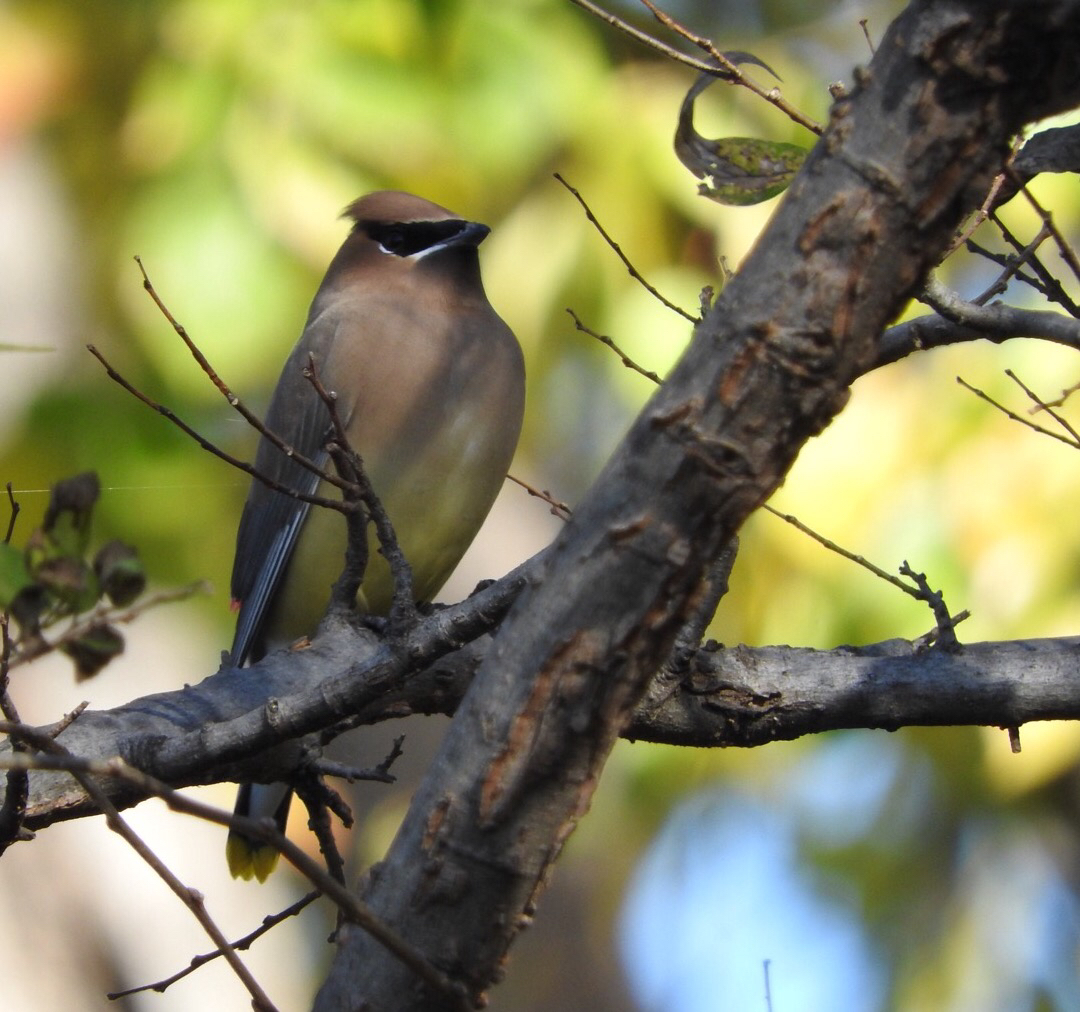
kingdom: Animalia
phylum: Chordata
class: Aves
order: Passeriformes
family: Bombycillidae
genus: Bombycilla
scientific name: Bombycilla cedrorum
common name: Cedar waxwing
